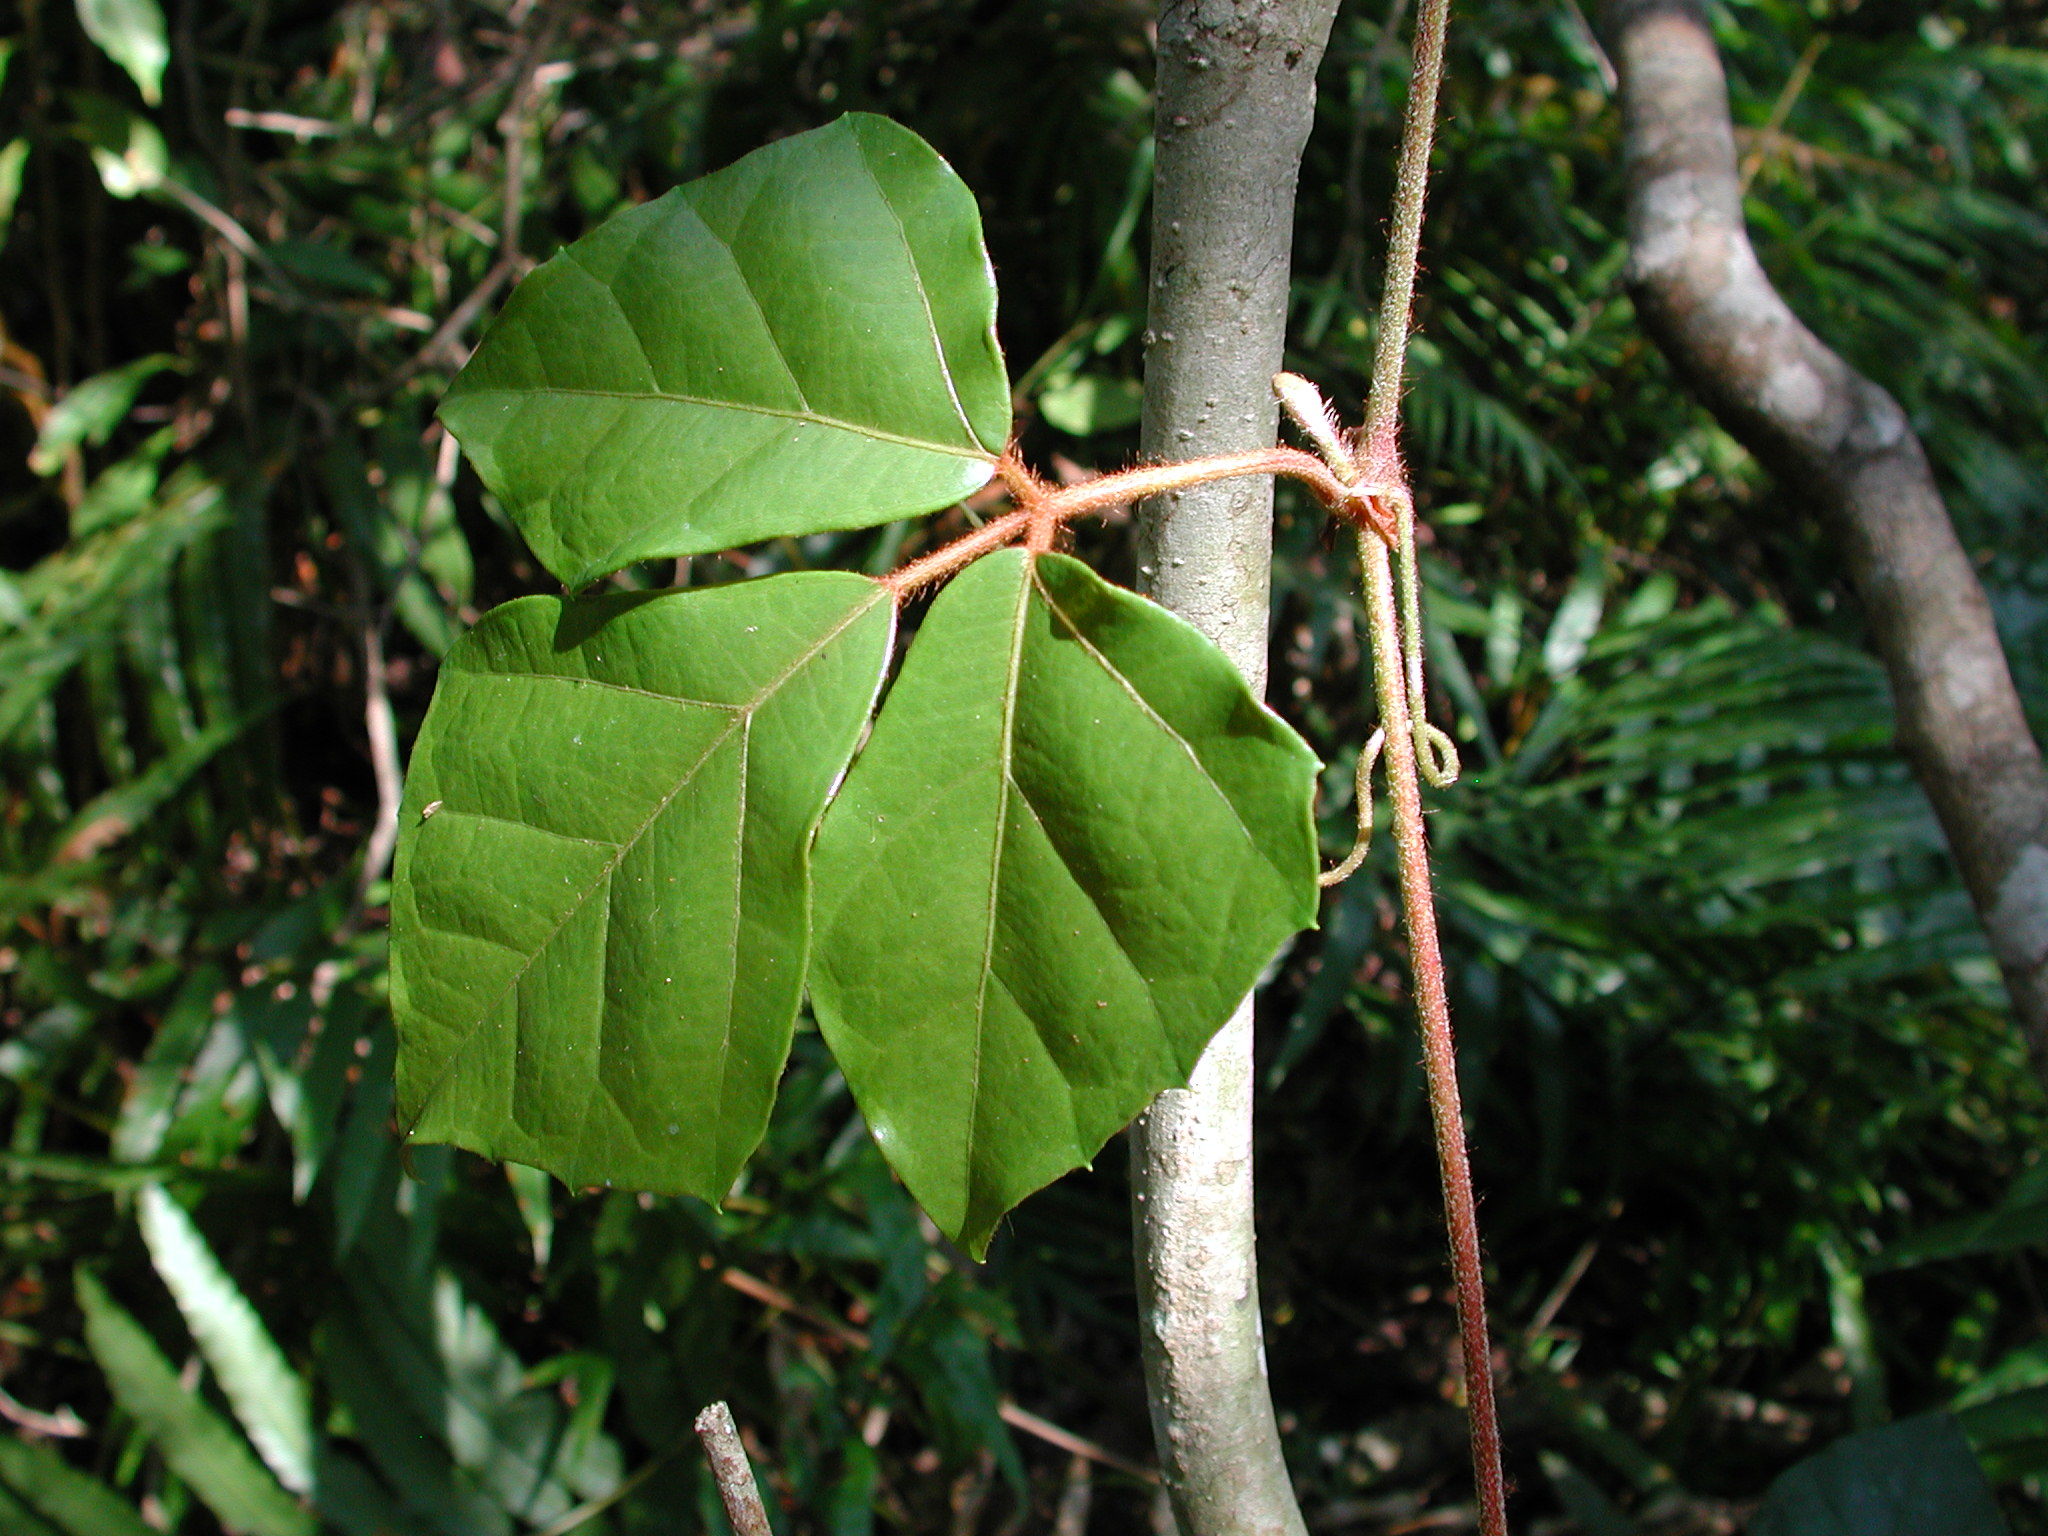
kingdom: Plantae
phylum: Tracheophyta
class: Magnoliopsida
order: Vitales
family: Vitaceae
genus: Rhoicissus
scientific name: Rhoicissus rhomboidea
